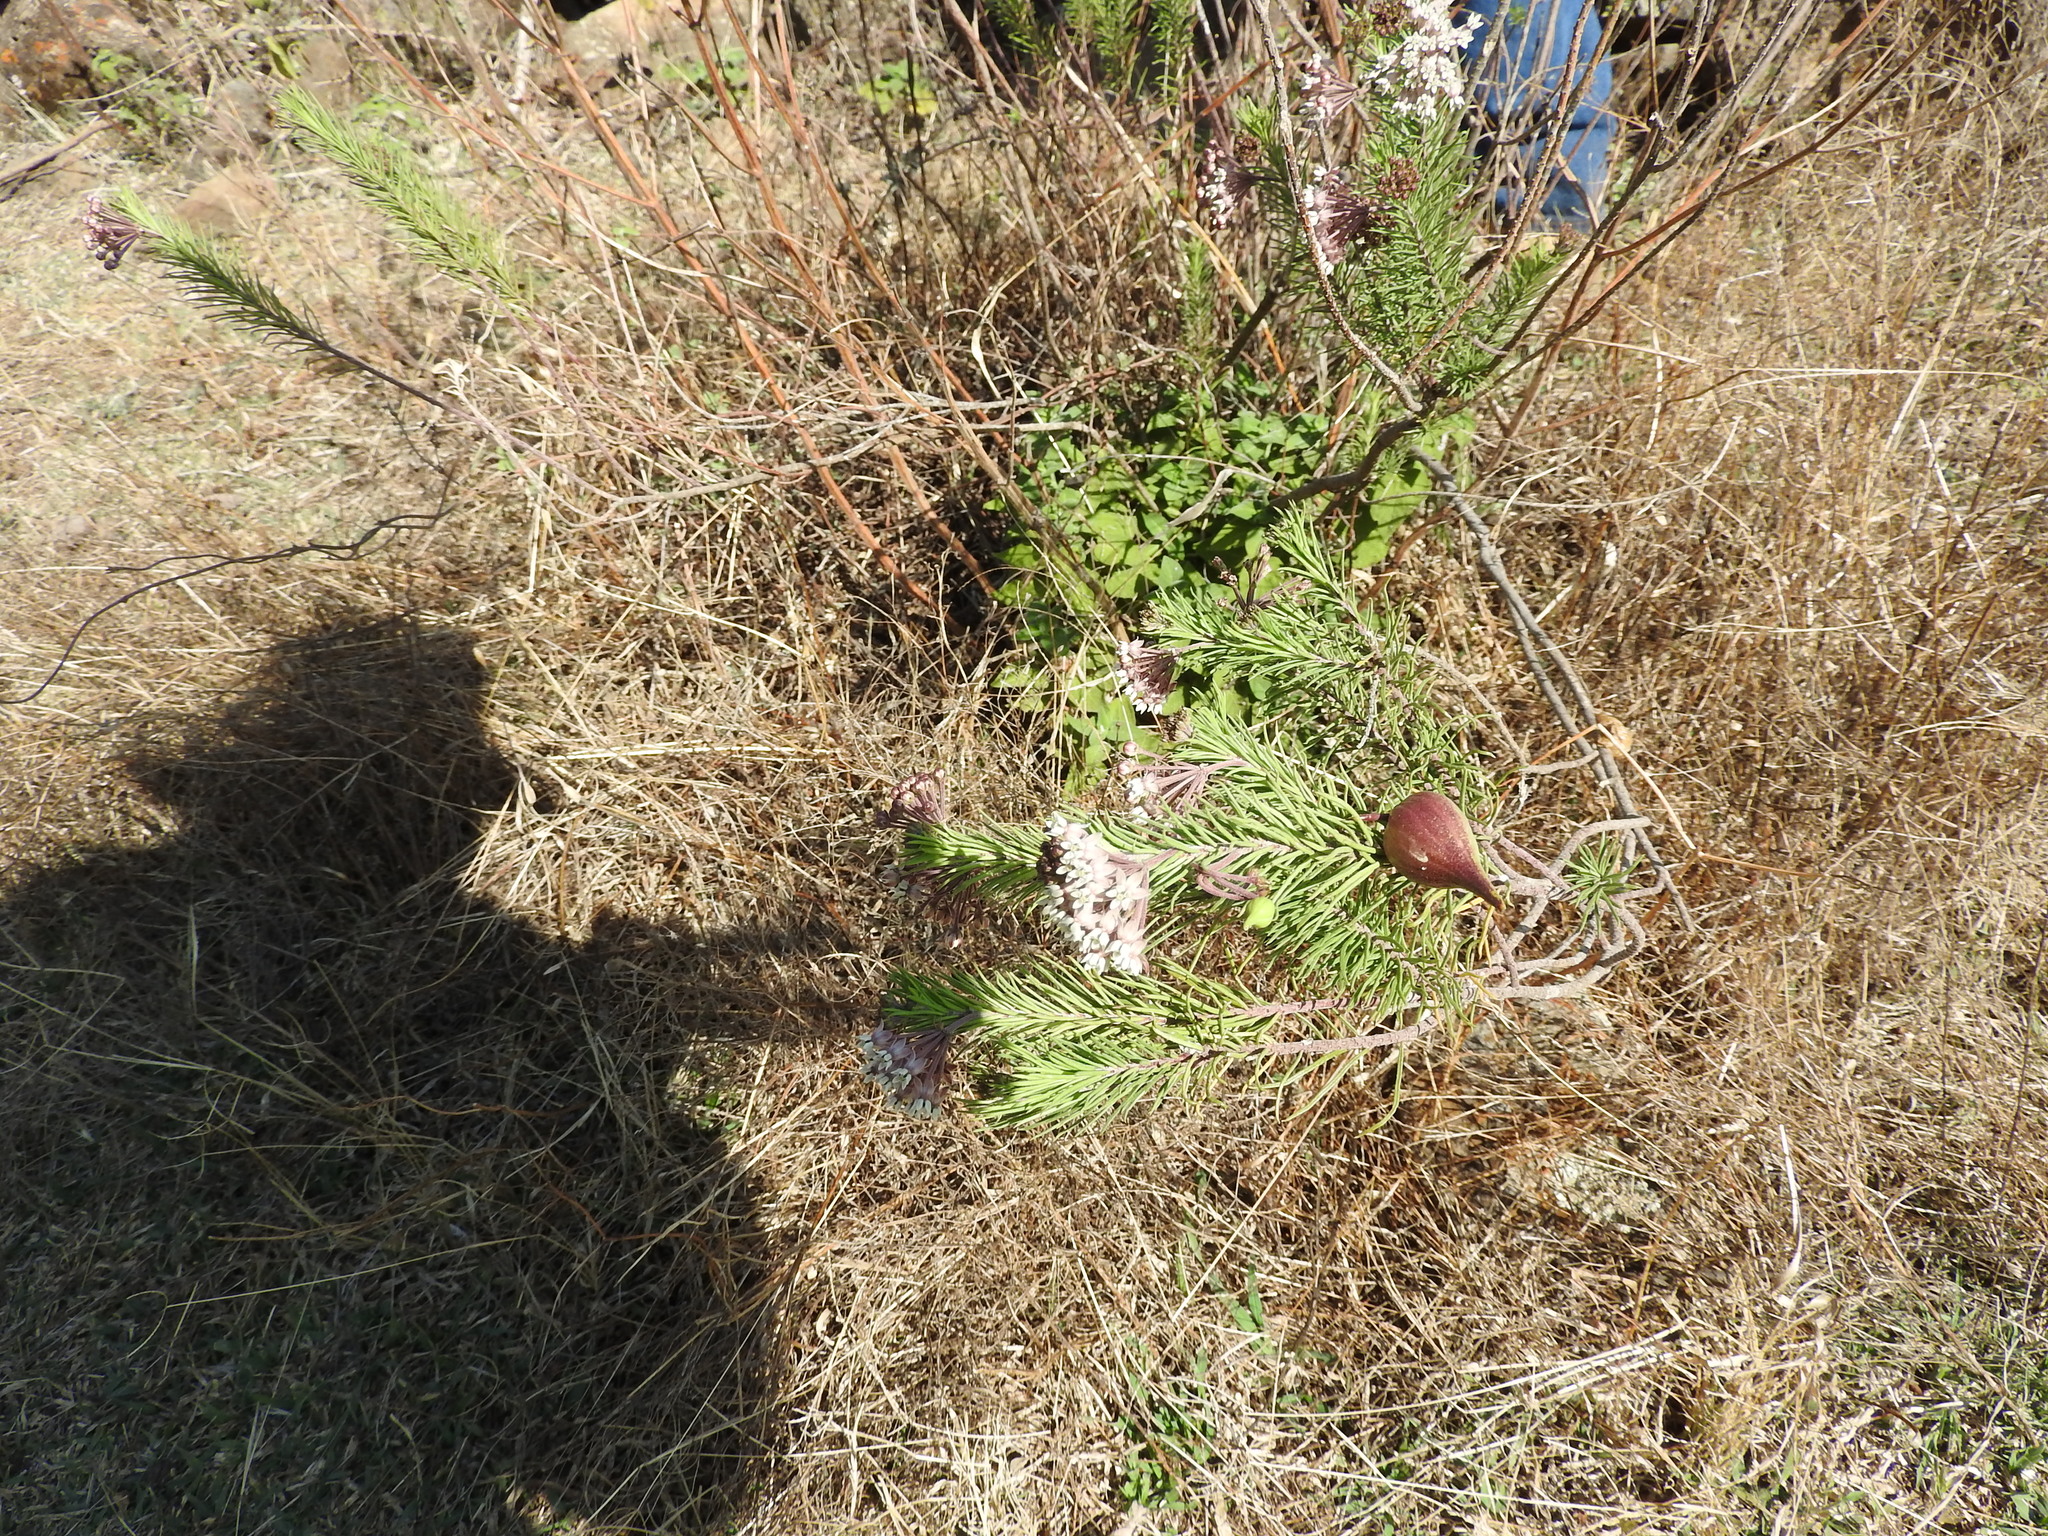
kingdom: Plantae
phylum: Tracheophyta
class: Magnoliopsida
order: Gentianales
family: Apocynaceae
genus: Asclepias
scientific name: Asclepias linaria
